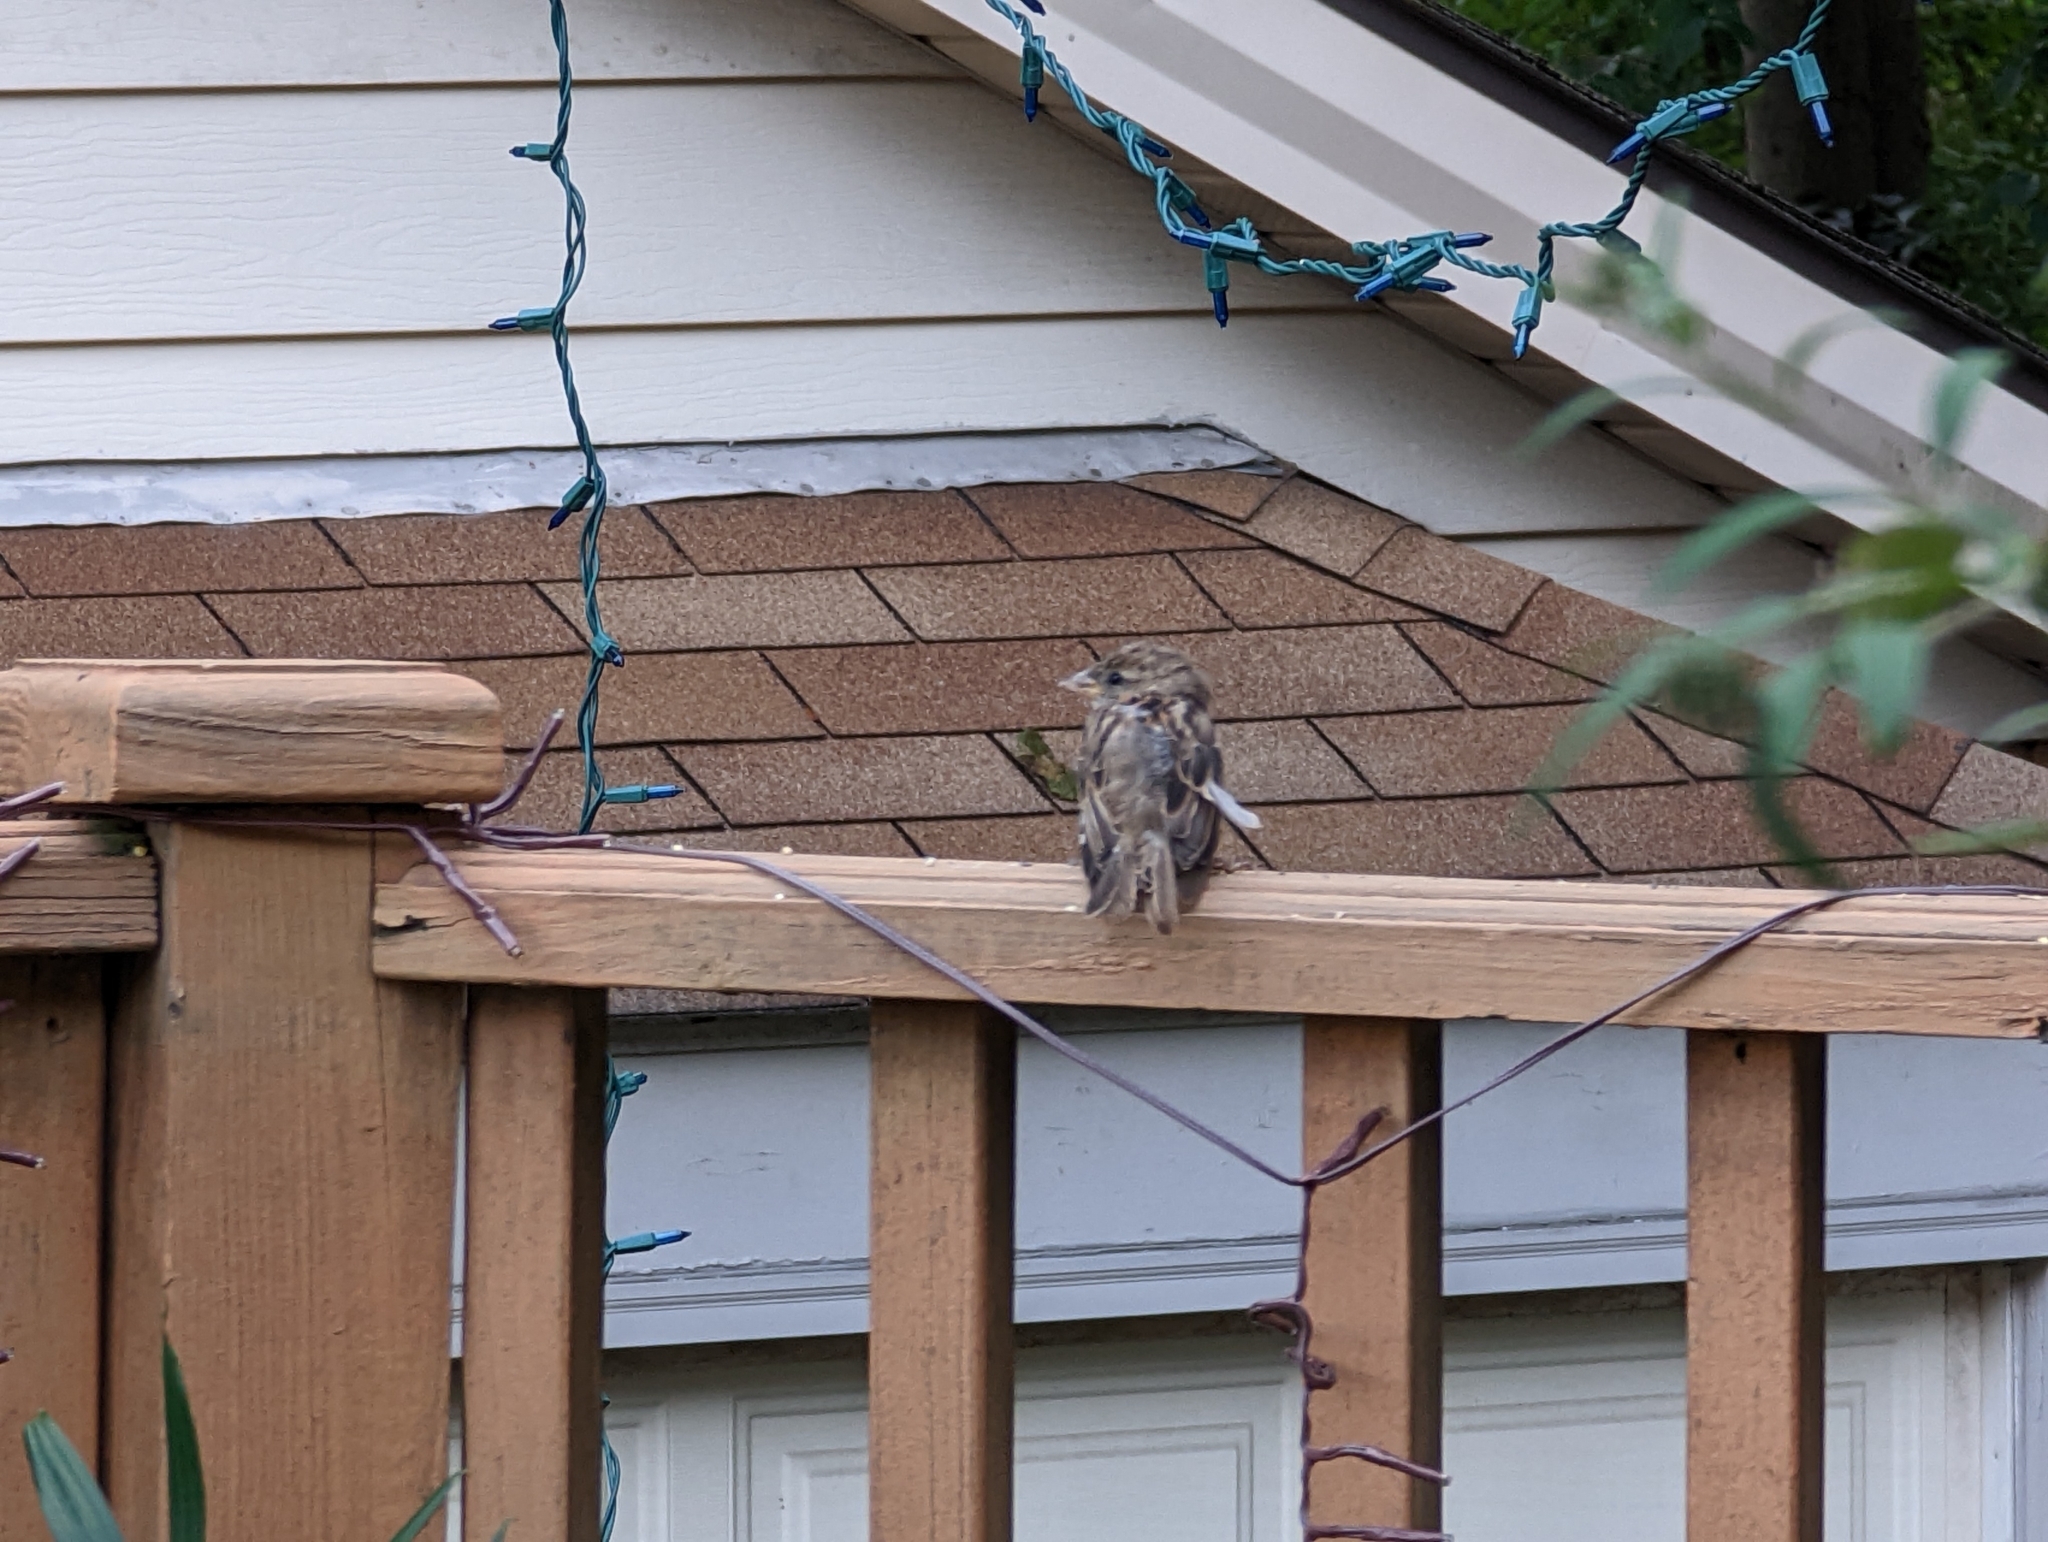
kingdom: Animalia
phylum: Chordata
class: Aves
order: Passeriformes
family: Passeridae
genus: Passer
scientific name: Passer domesticus
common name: House sparrow
